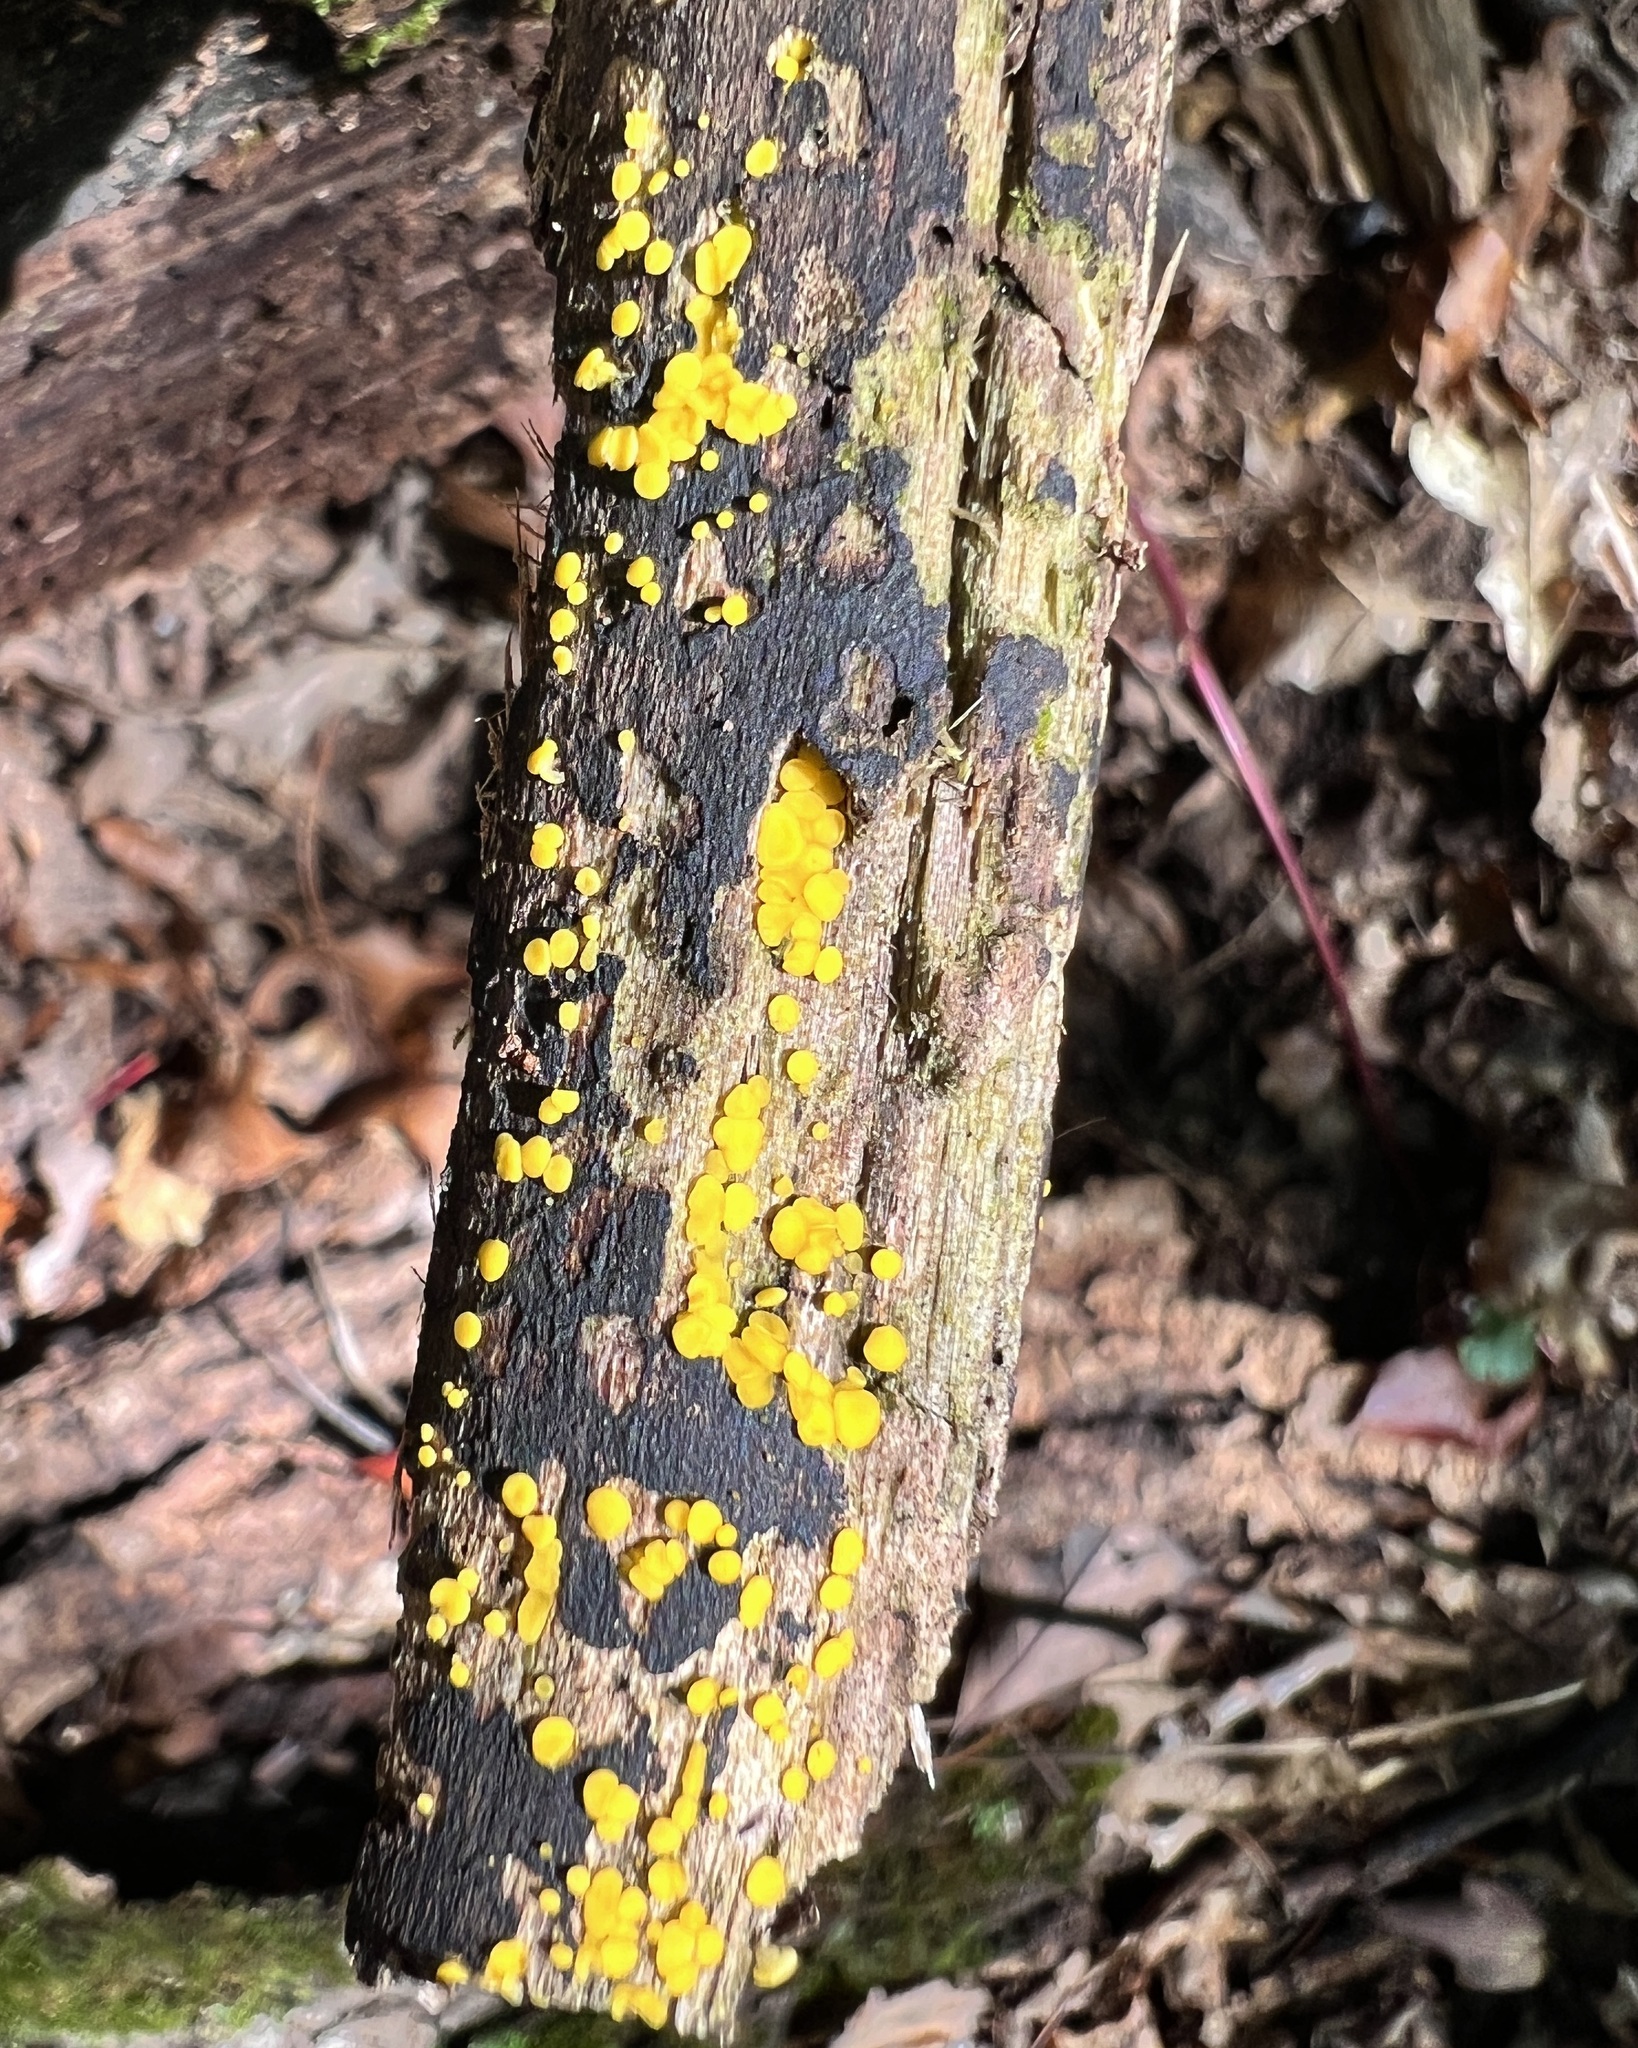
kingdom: Fungi
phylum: Ascomycota
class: Leotiomycetes
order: Helotiales
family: Pezizellaceae
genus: Calycina
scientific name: Calycina citrina
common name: Yellow fairy cups
